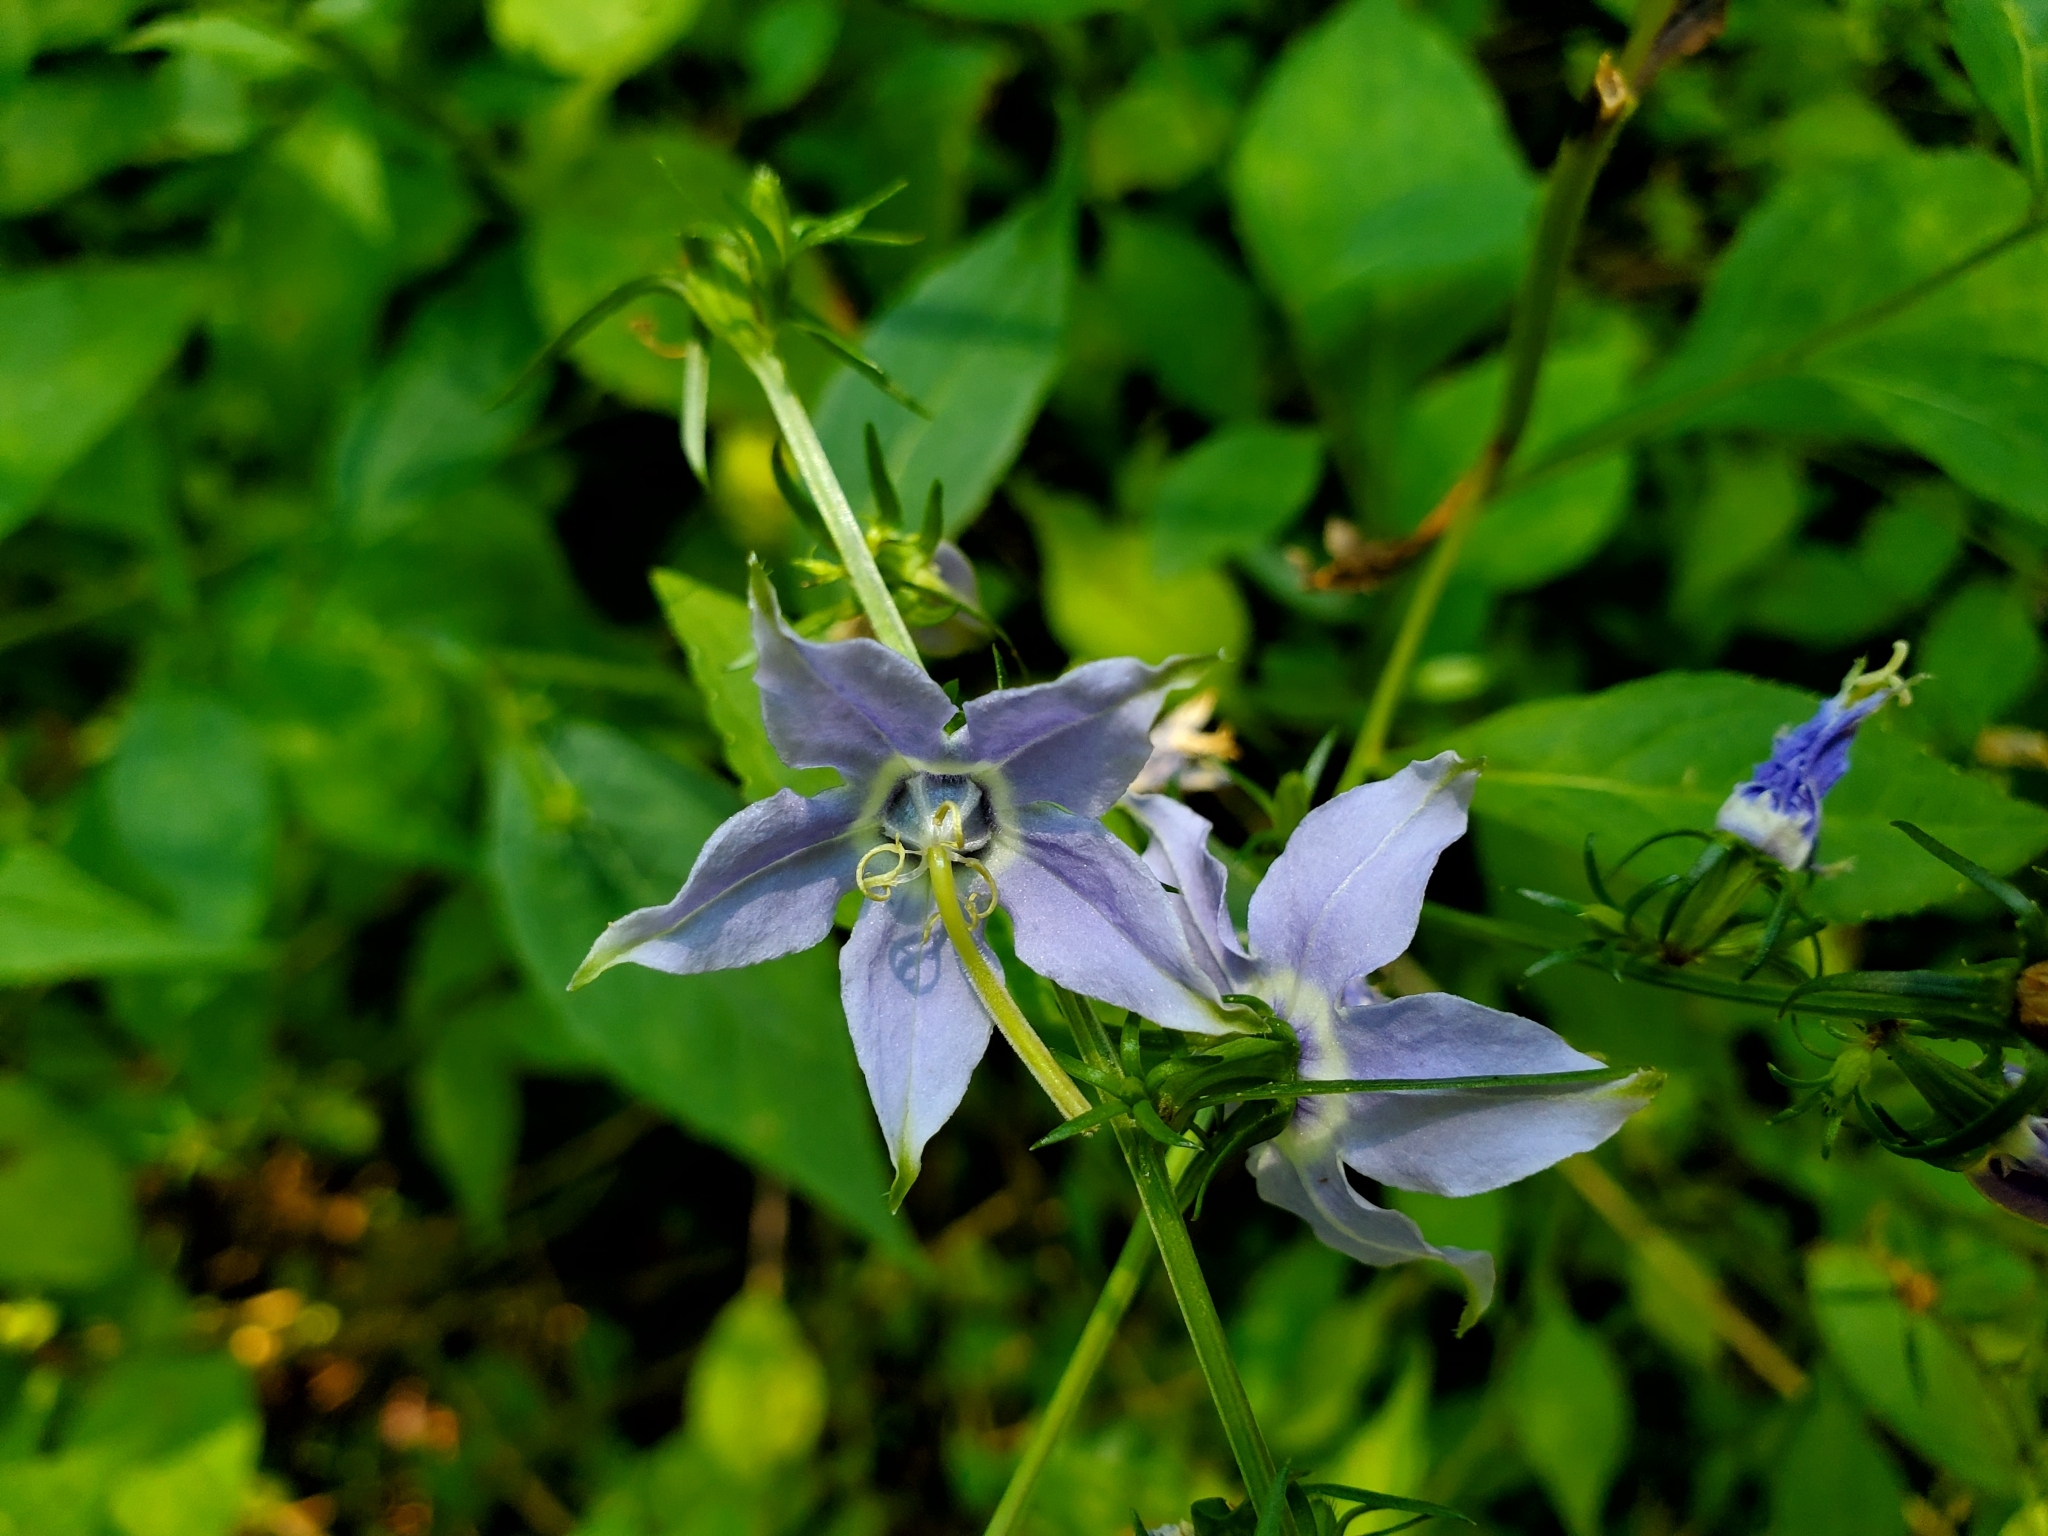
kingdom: Plantae
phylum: Tracheophyta
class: Magnoliopsida
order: Asterales
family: Campanulaceae
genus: Campanulastrum
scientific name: Campanulastrum americanum
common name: American bellflower
